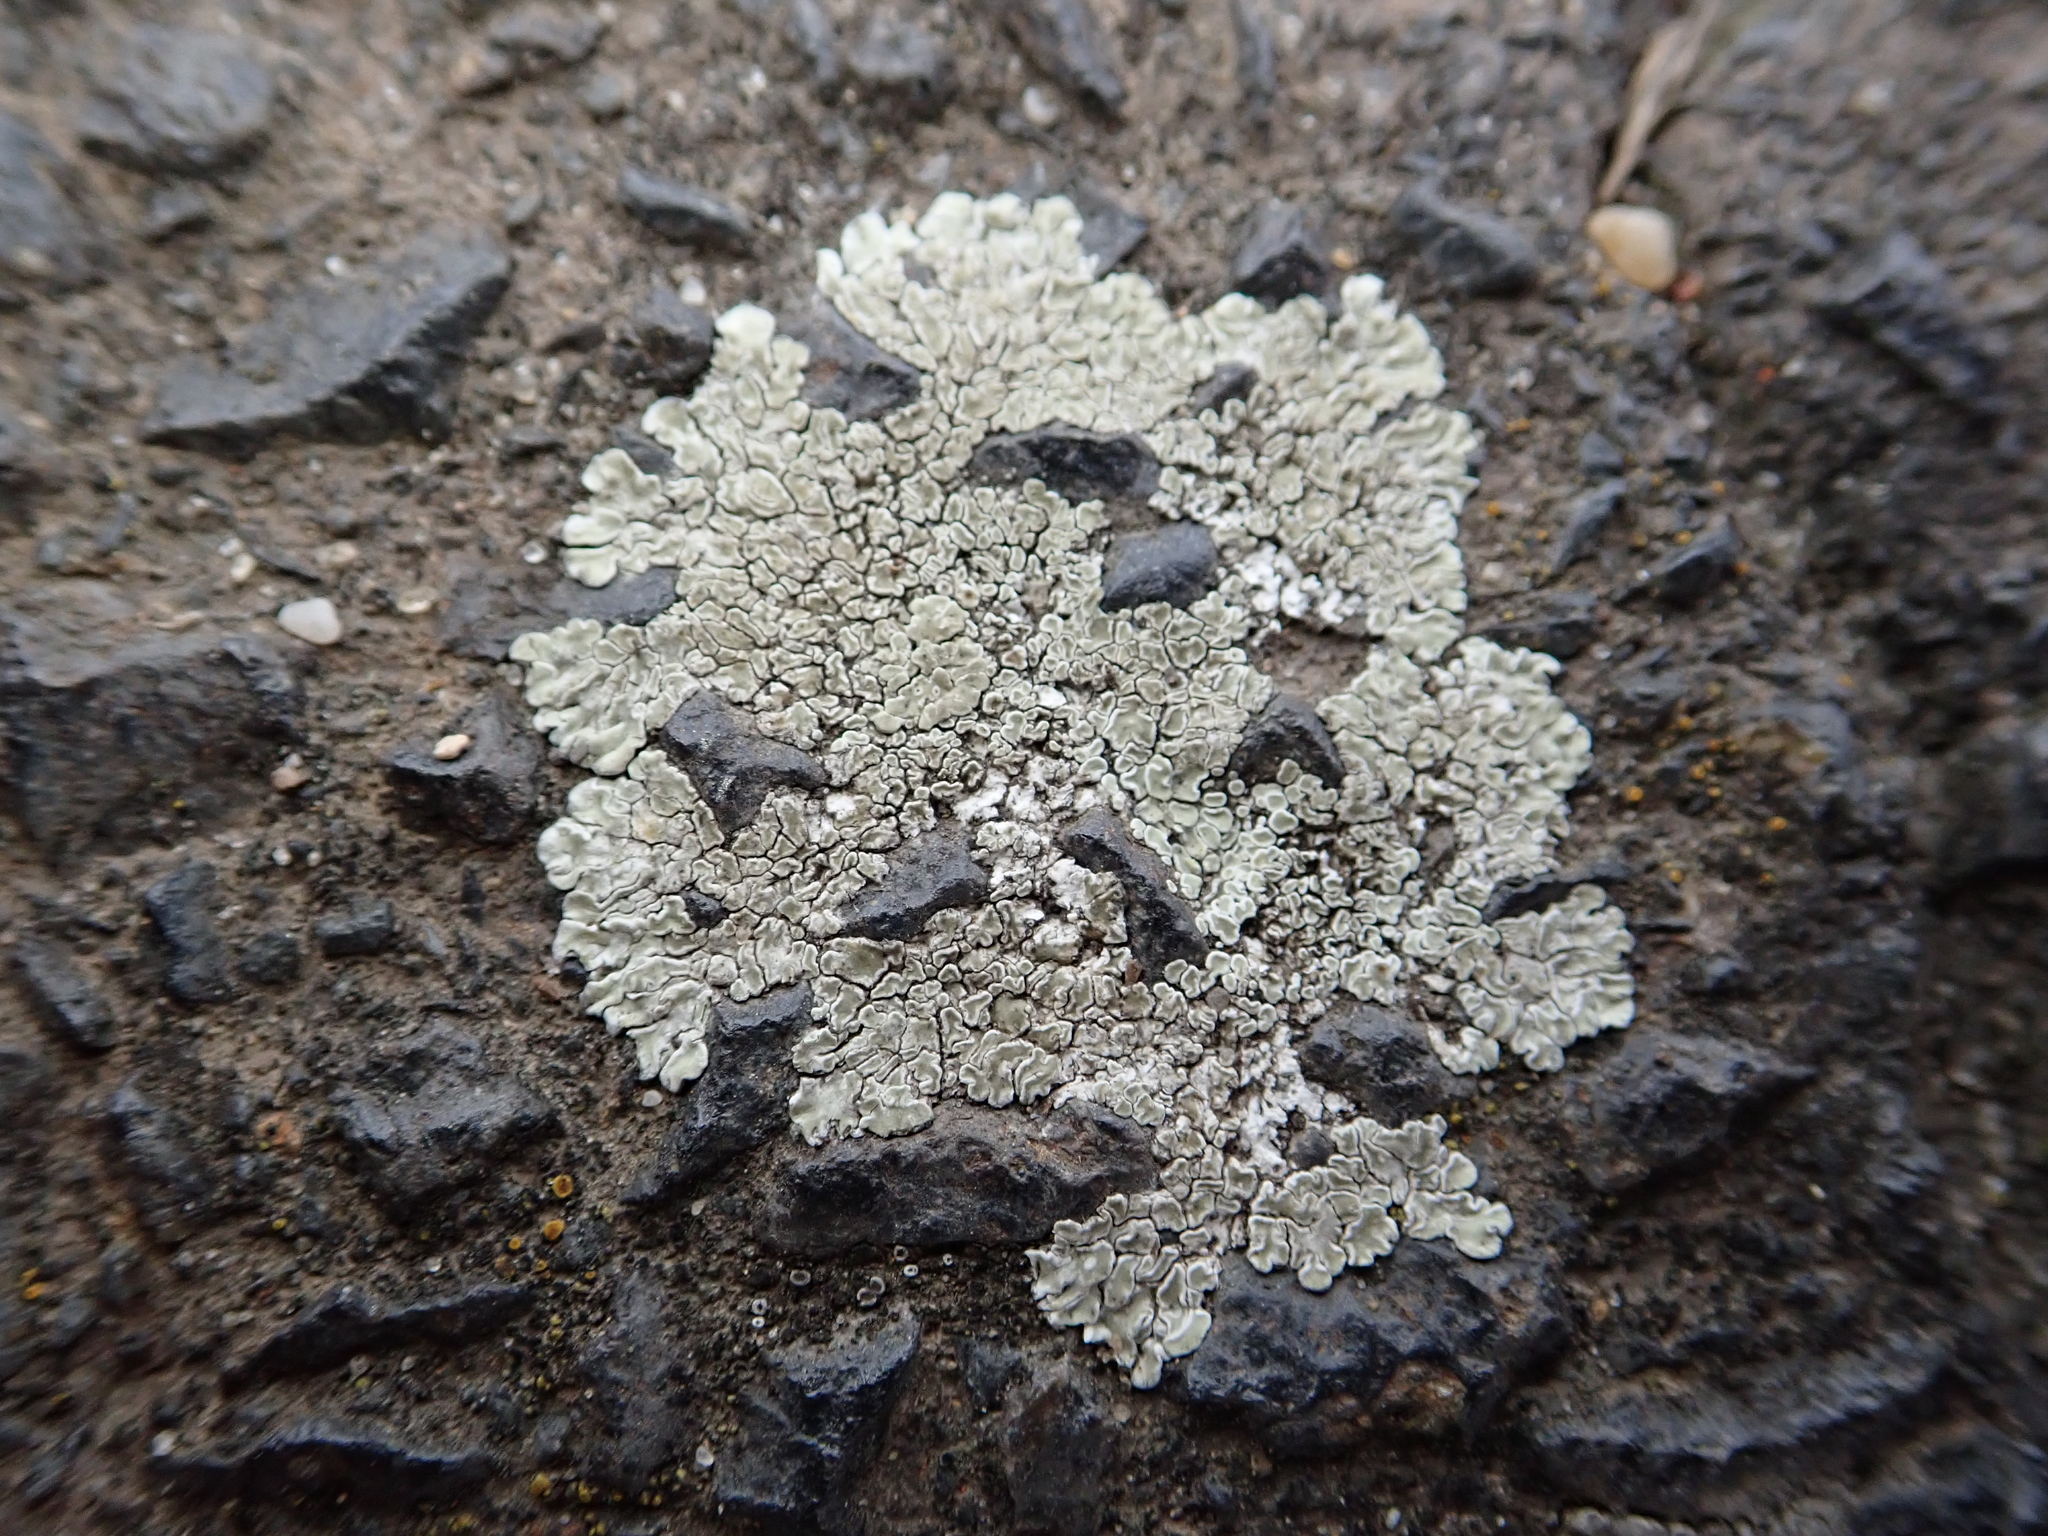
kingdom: Fungi
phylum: Ascomycota
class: Lecanoromycetes
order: Lecanorales
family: Lecanoraceae
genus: Protoparmeliopsis
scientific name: Protoparmeliopsis muralis
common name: Stonewall rim lichen
